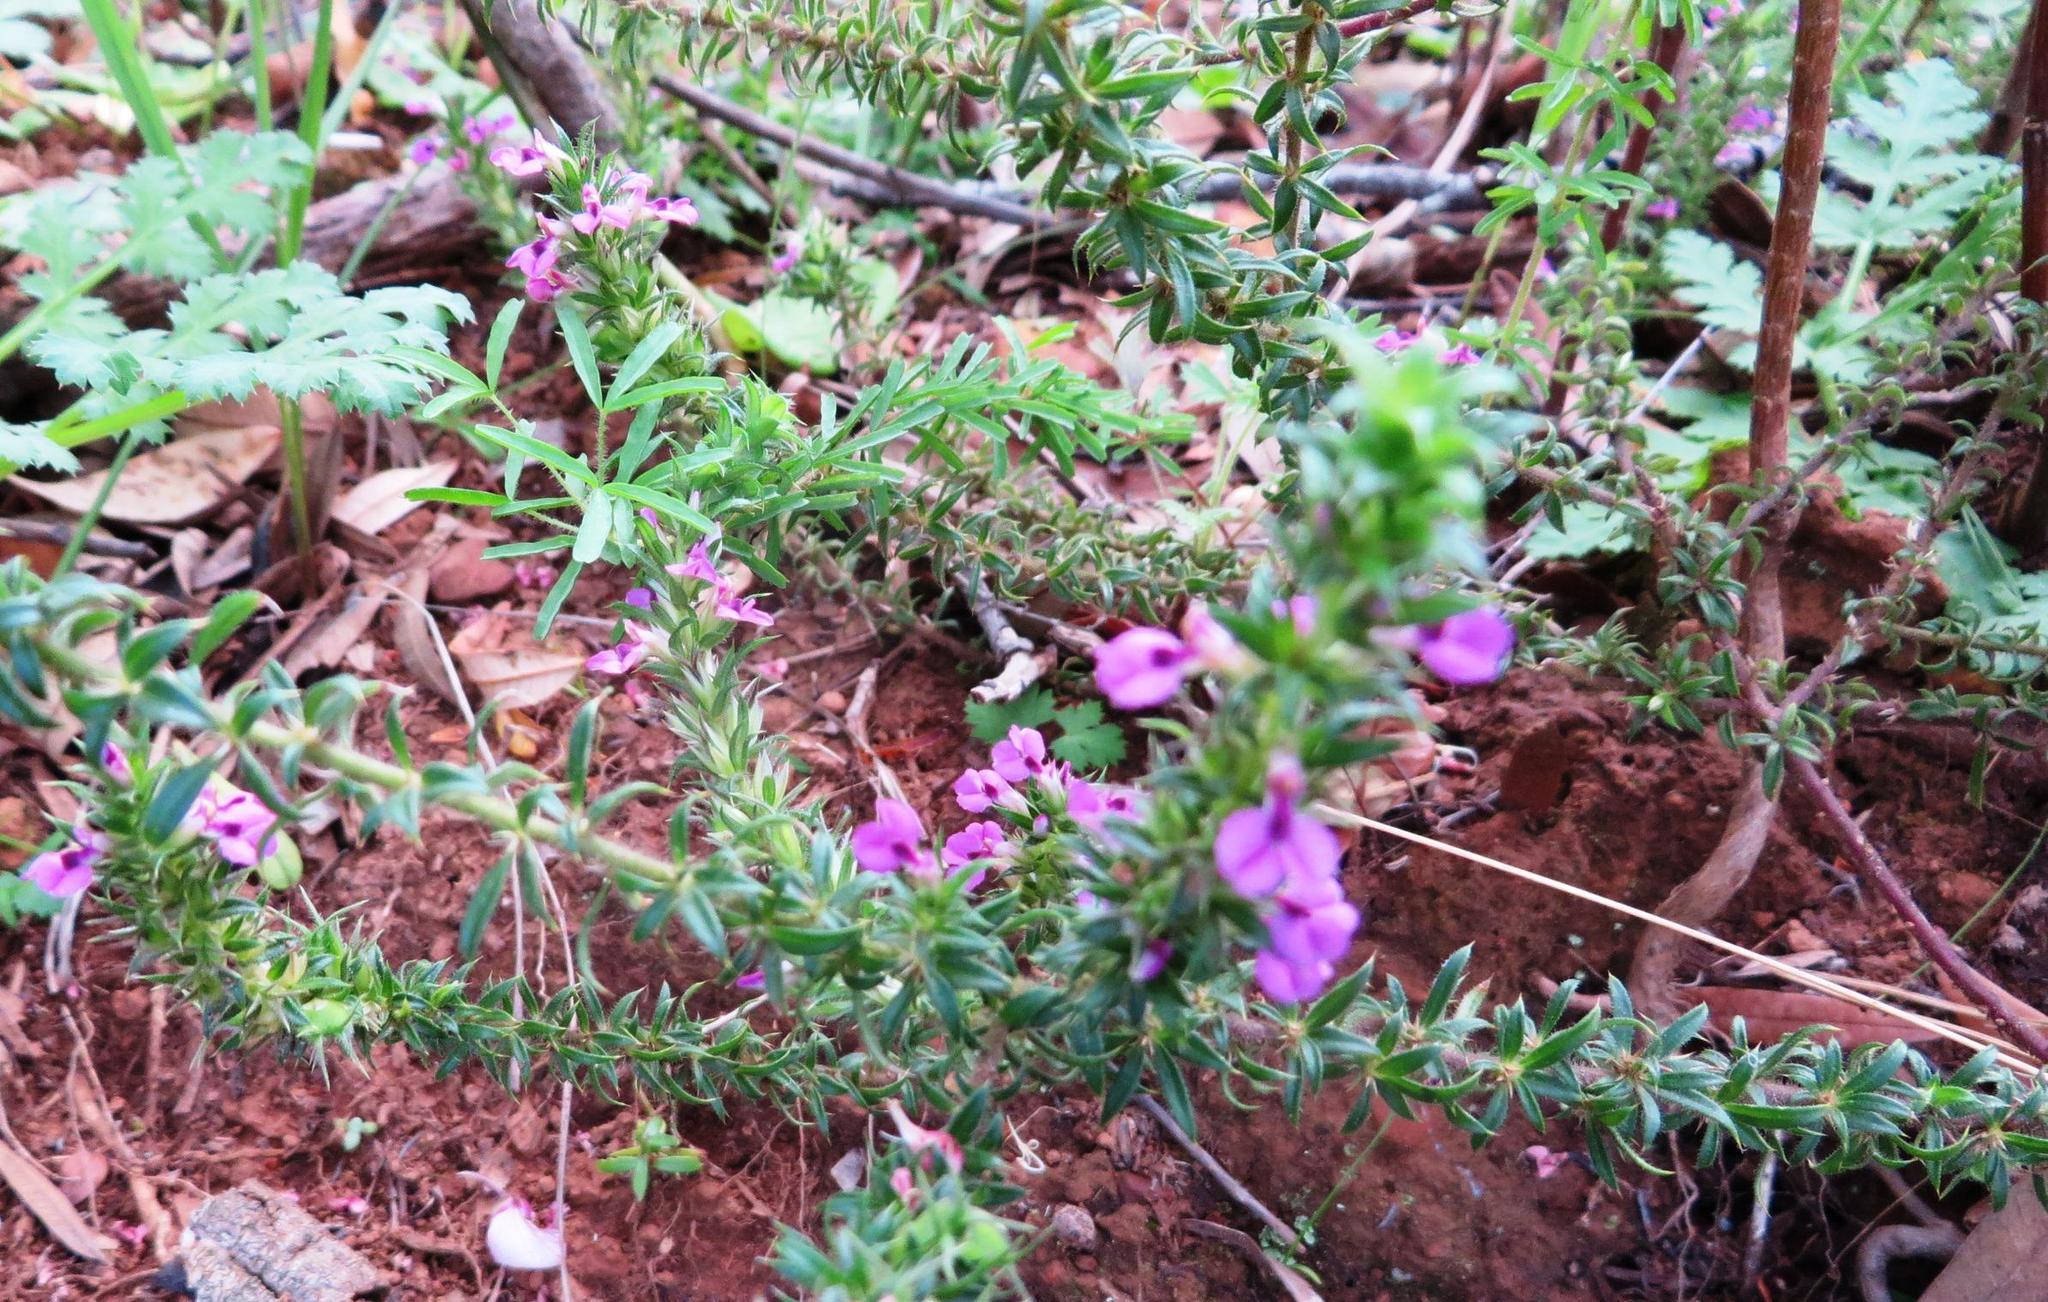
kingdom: Plantae
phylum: Tracheophyta
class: Magnoliopsida
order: Fabales
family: Polygalaceae
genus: Muraltia
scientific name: Muraltia heisteria
